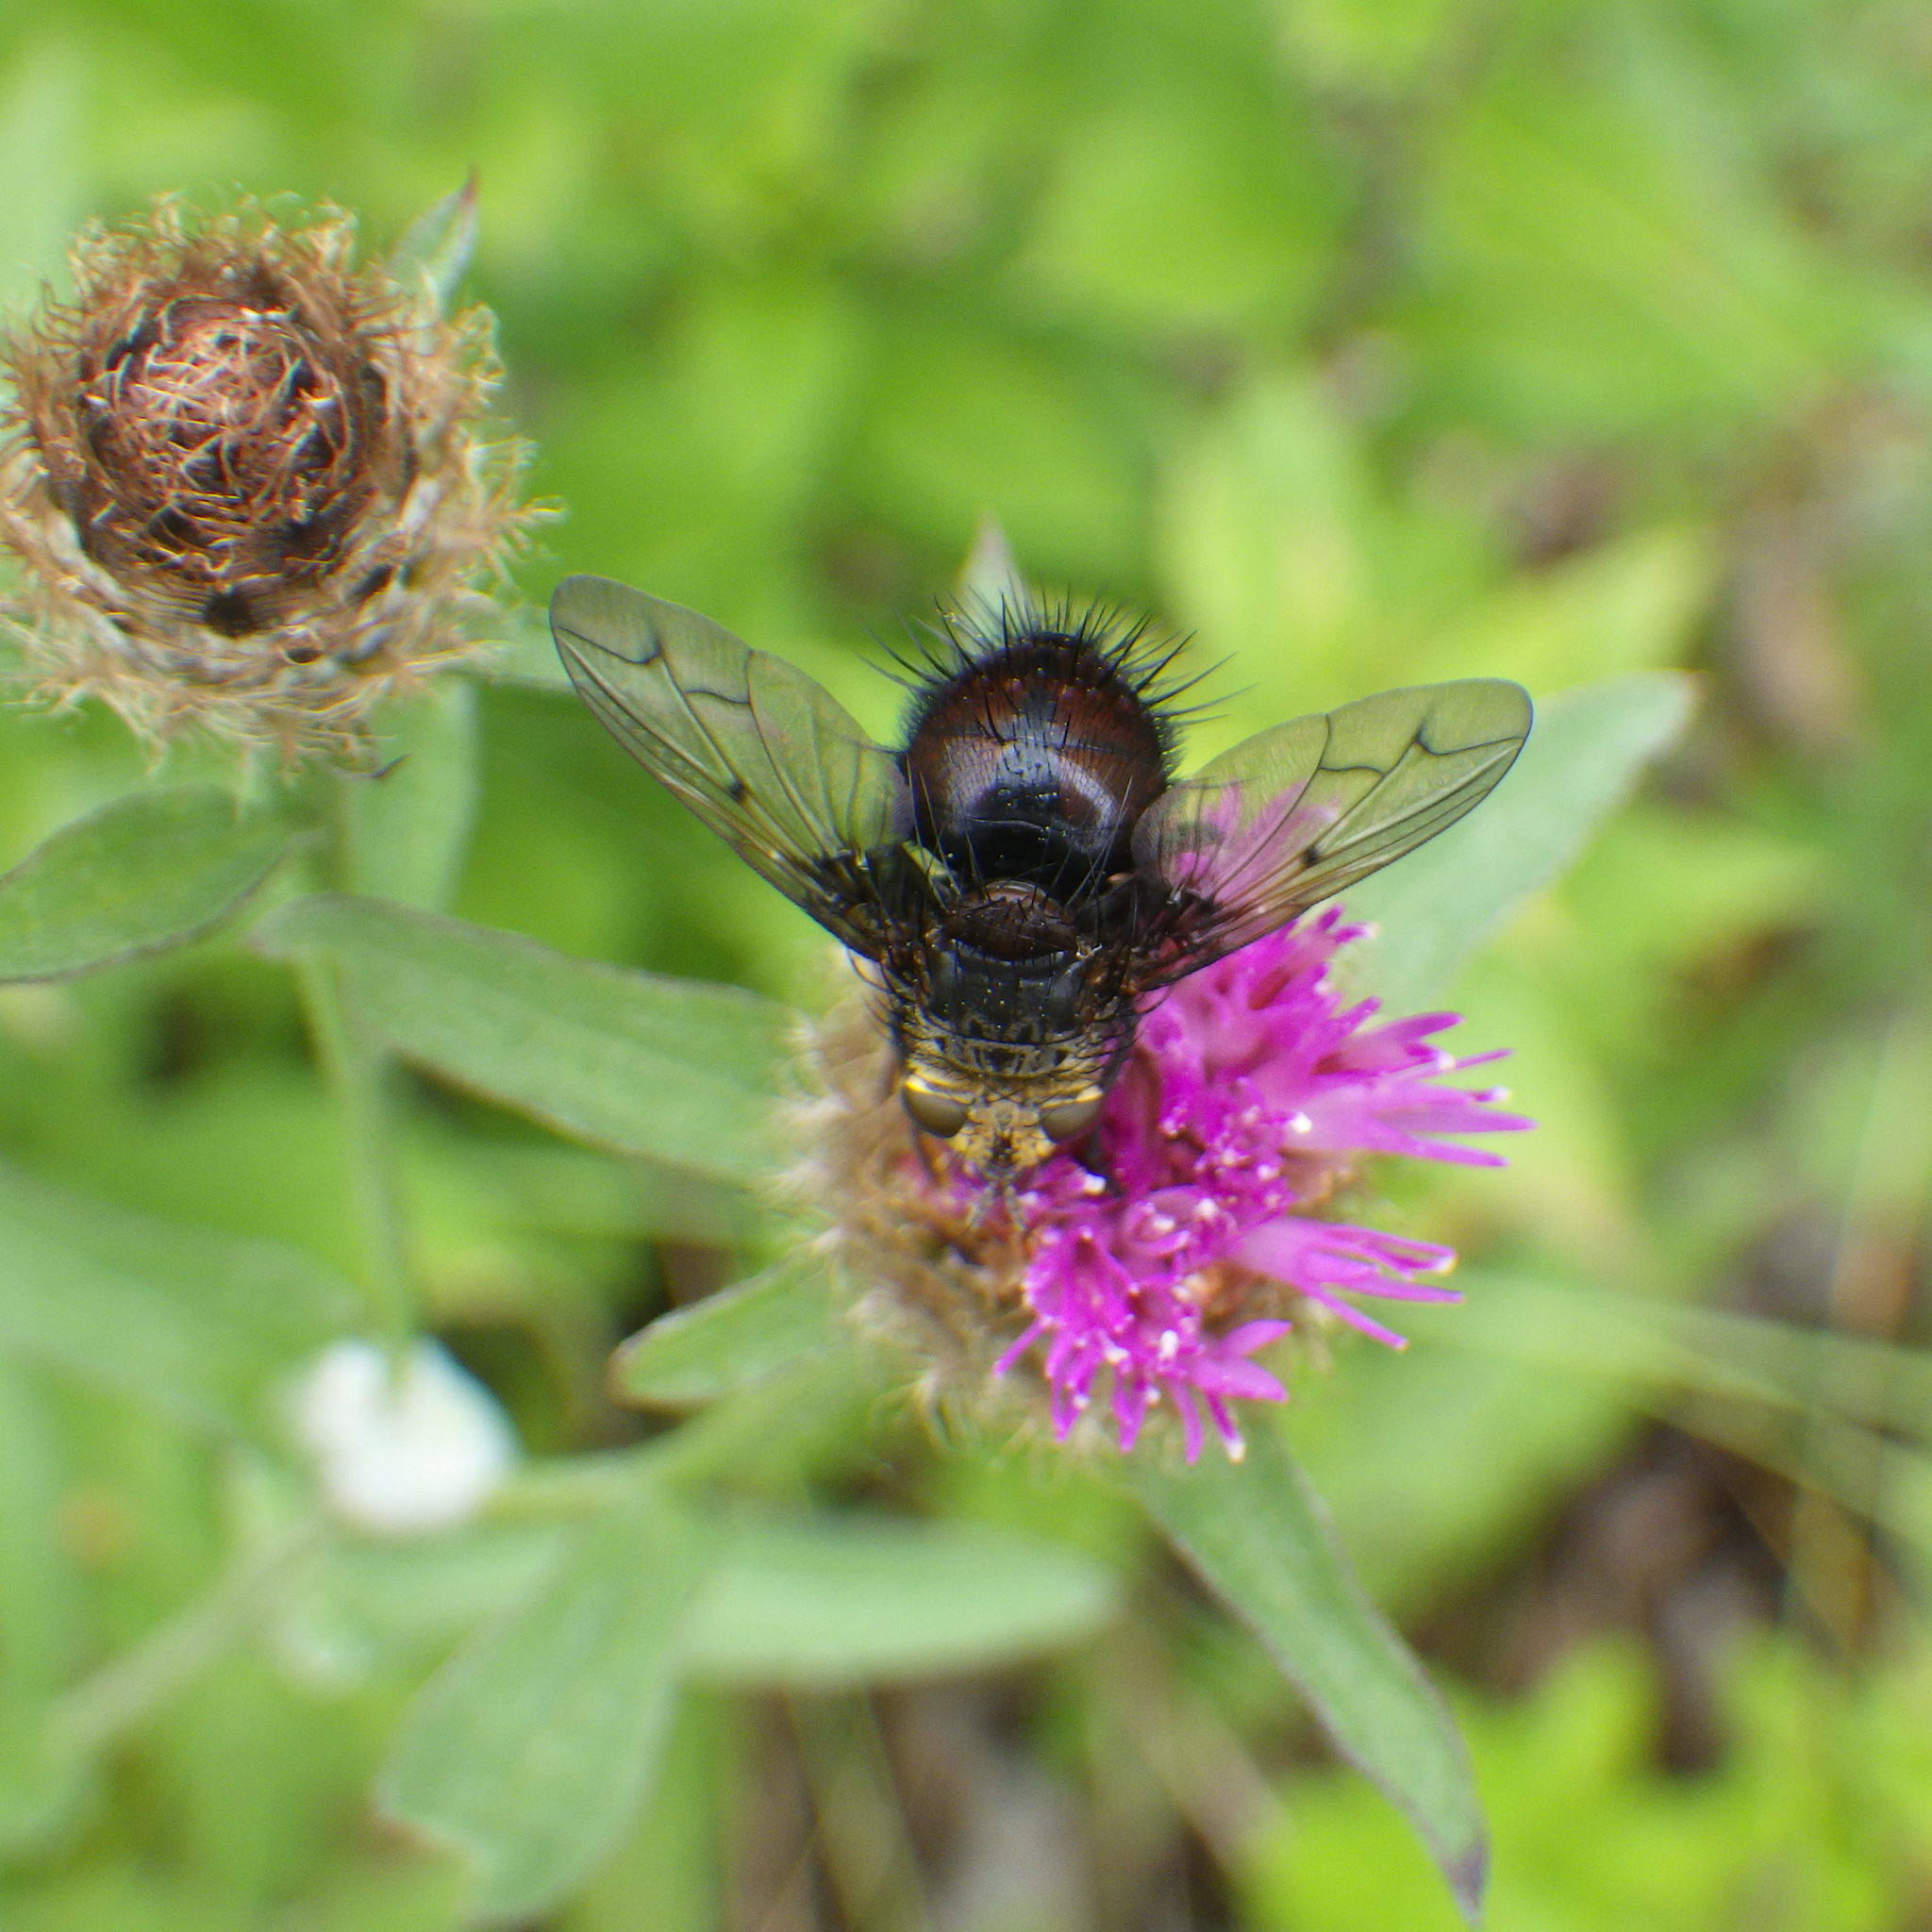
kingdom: Animalia
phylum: Arthropoda
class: Insecta
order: Diptera
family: Tachinidae
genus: Pararchytas
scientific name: Pararchytas decisus
